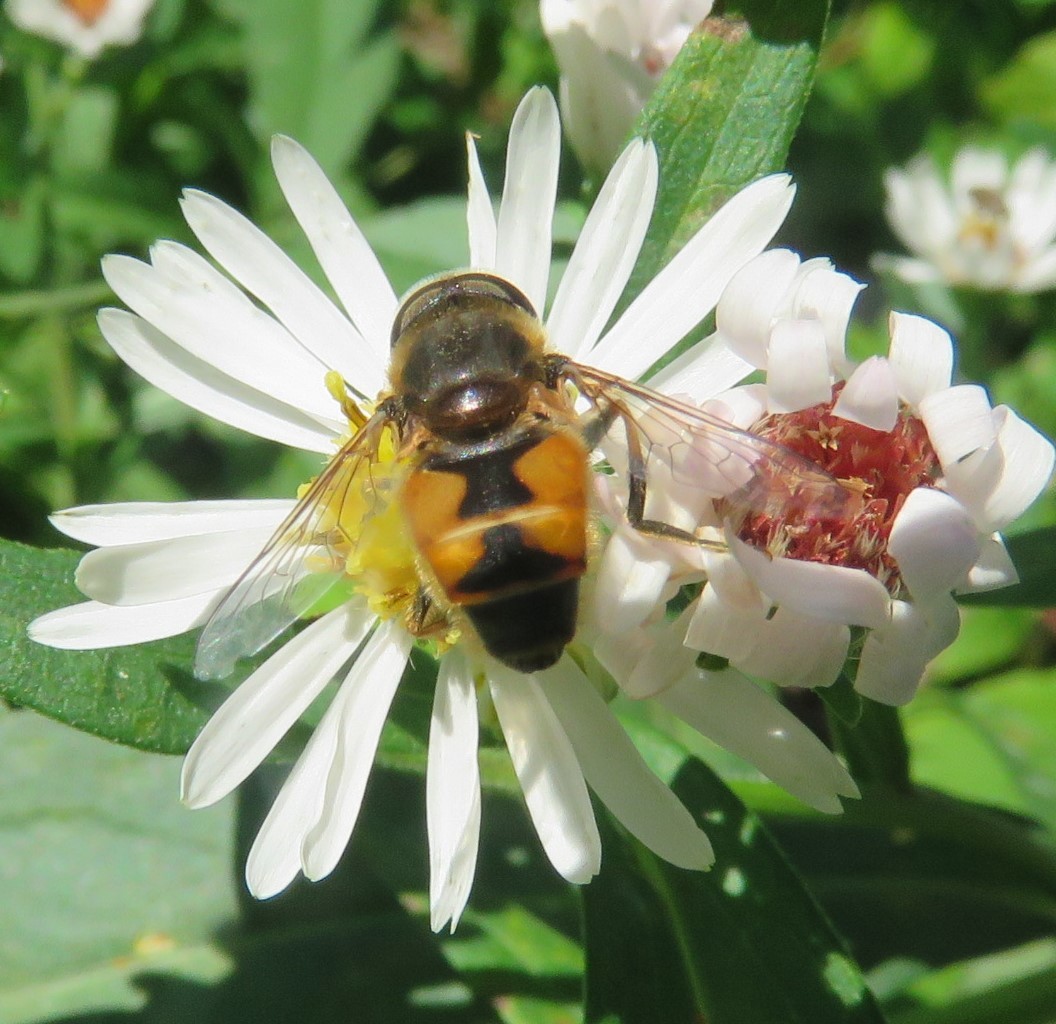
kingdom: Animalia
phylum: Arthropoda
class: Insecta
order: Diptera
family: Syrphidae
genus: Eristalis
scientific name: Eristalis arbustorum
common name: Hover fly
